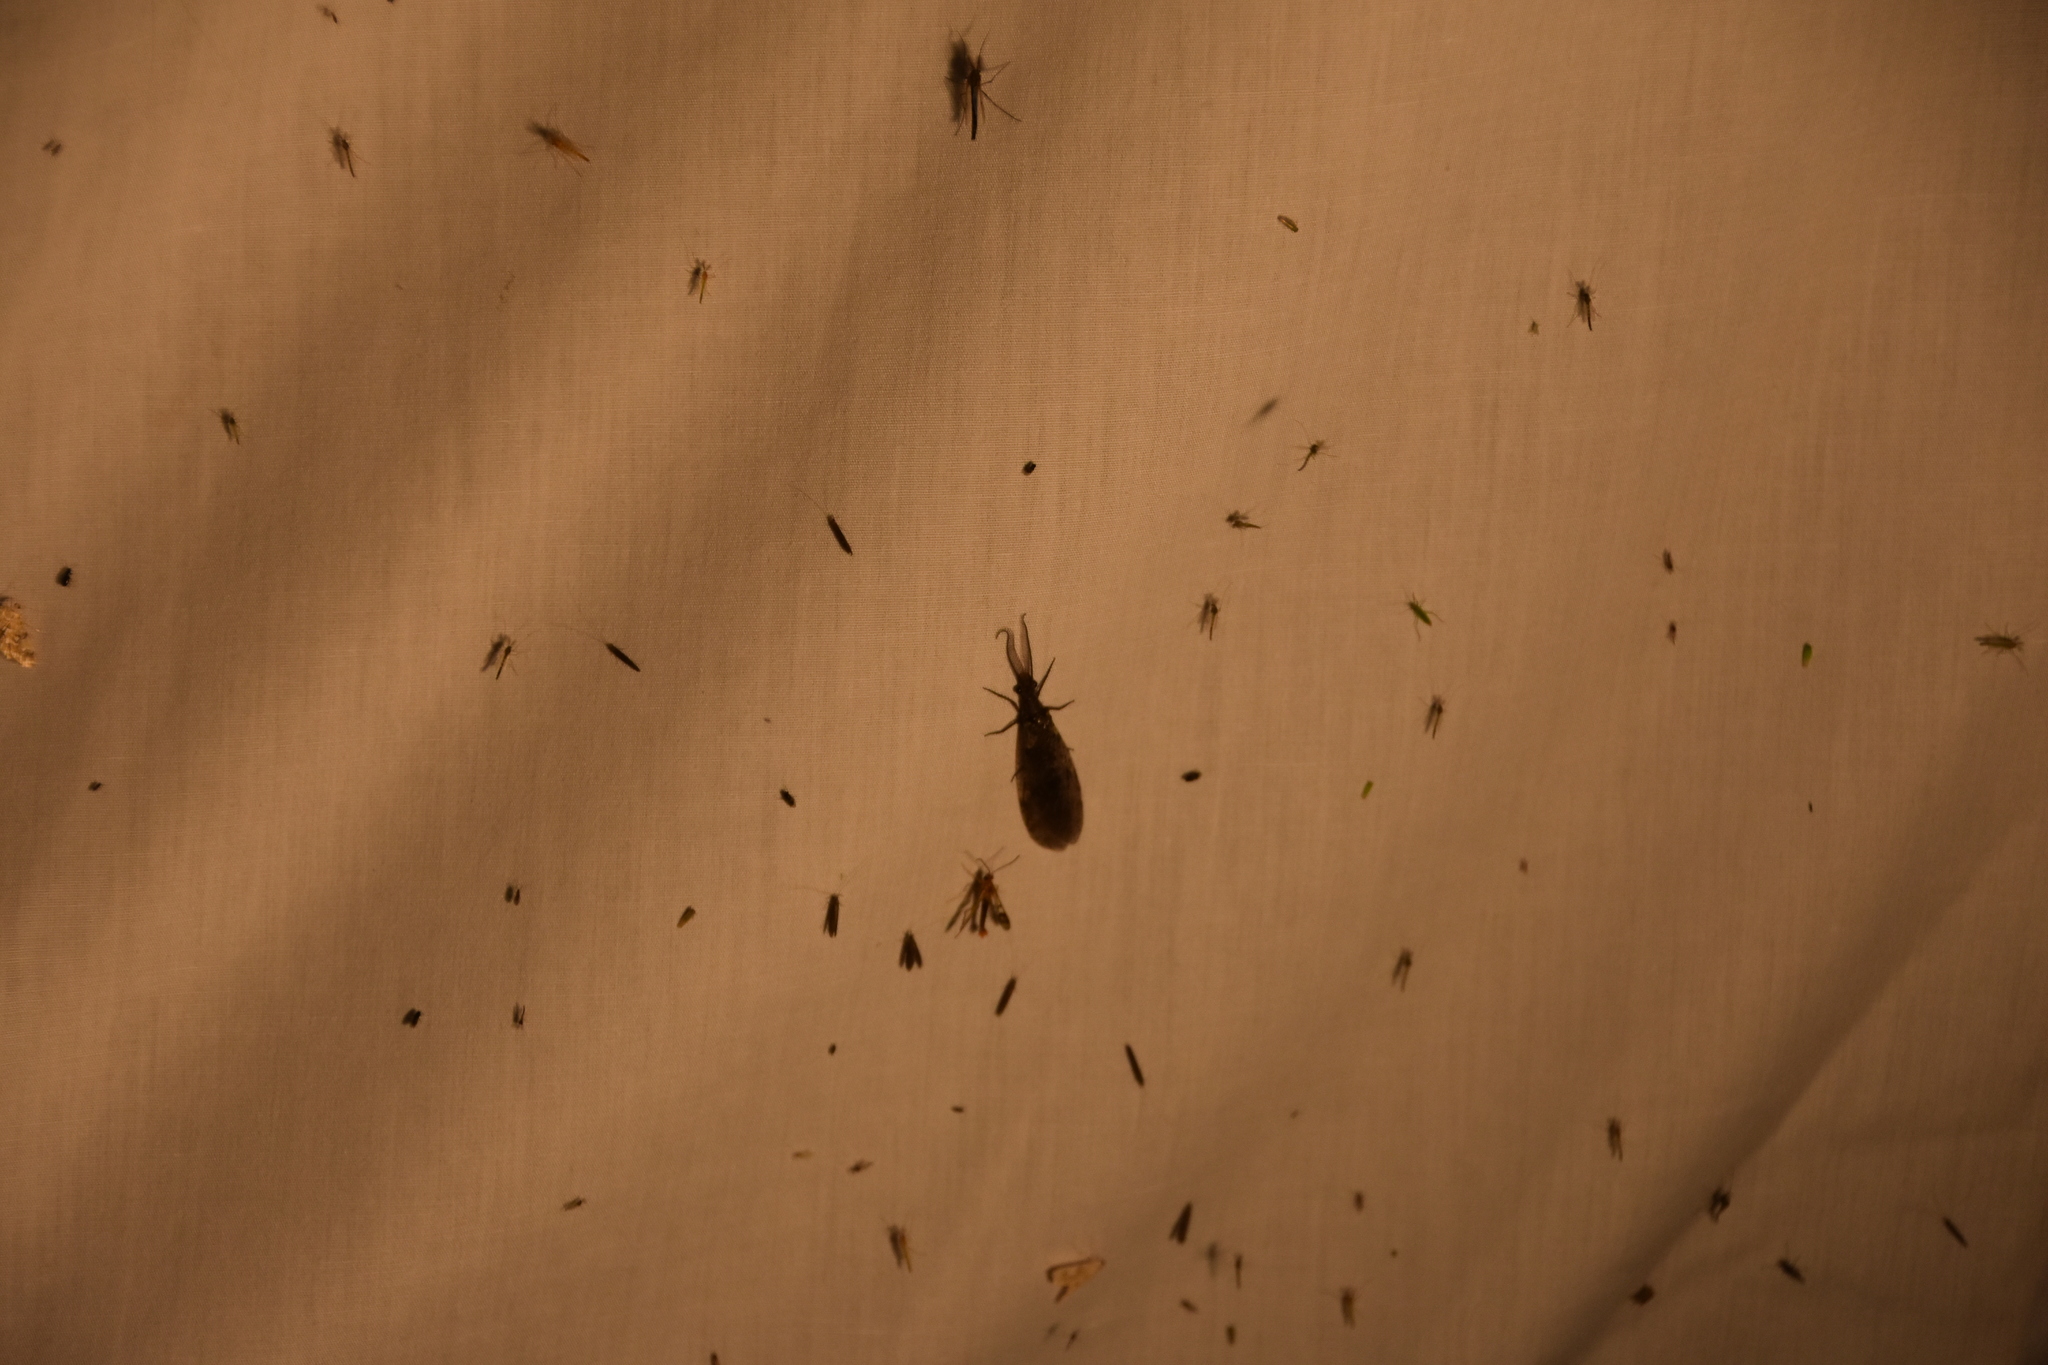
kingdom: Animalia
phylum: Arthropoda
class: Insecta
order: Megaloptera
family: Corydalidae
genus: Chauliodes
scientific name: Chauliodes
